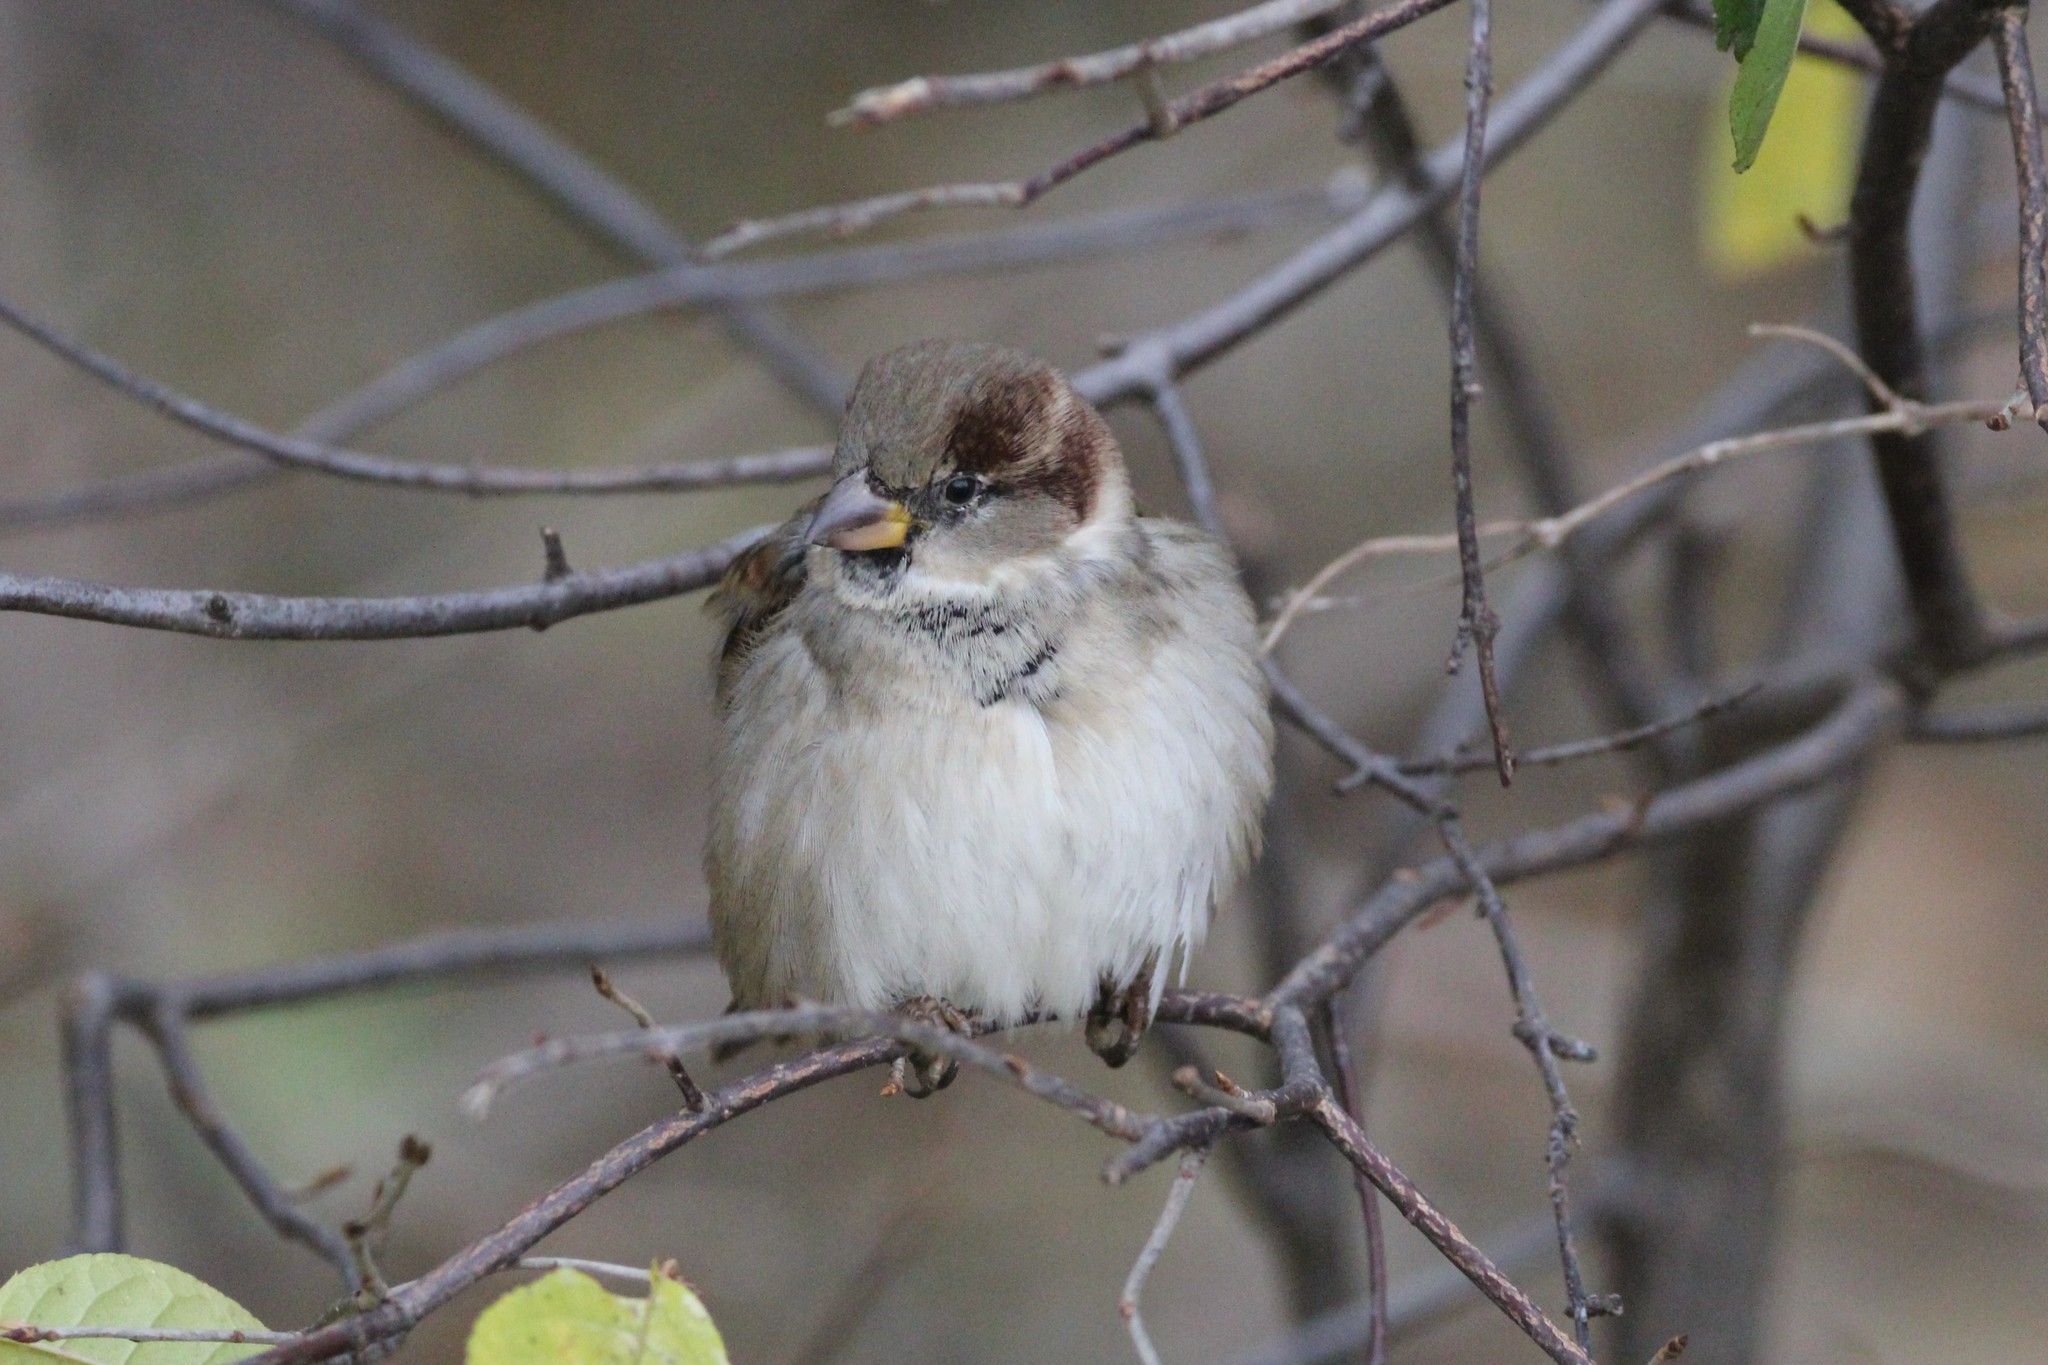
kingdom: Animalia
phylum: Chordata
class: Aves
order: Passeriformes
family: Passeridae
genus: Passer
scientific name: Passer domesticus
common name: House sparrow
